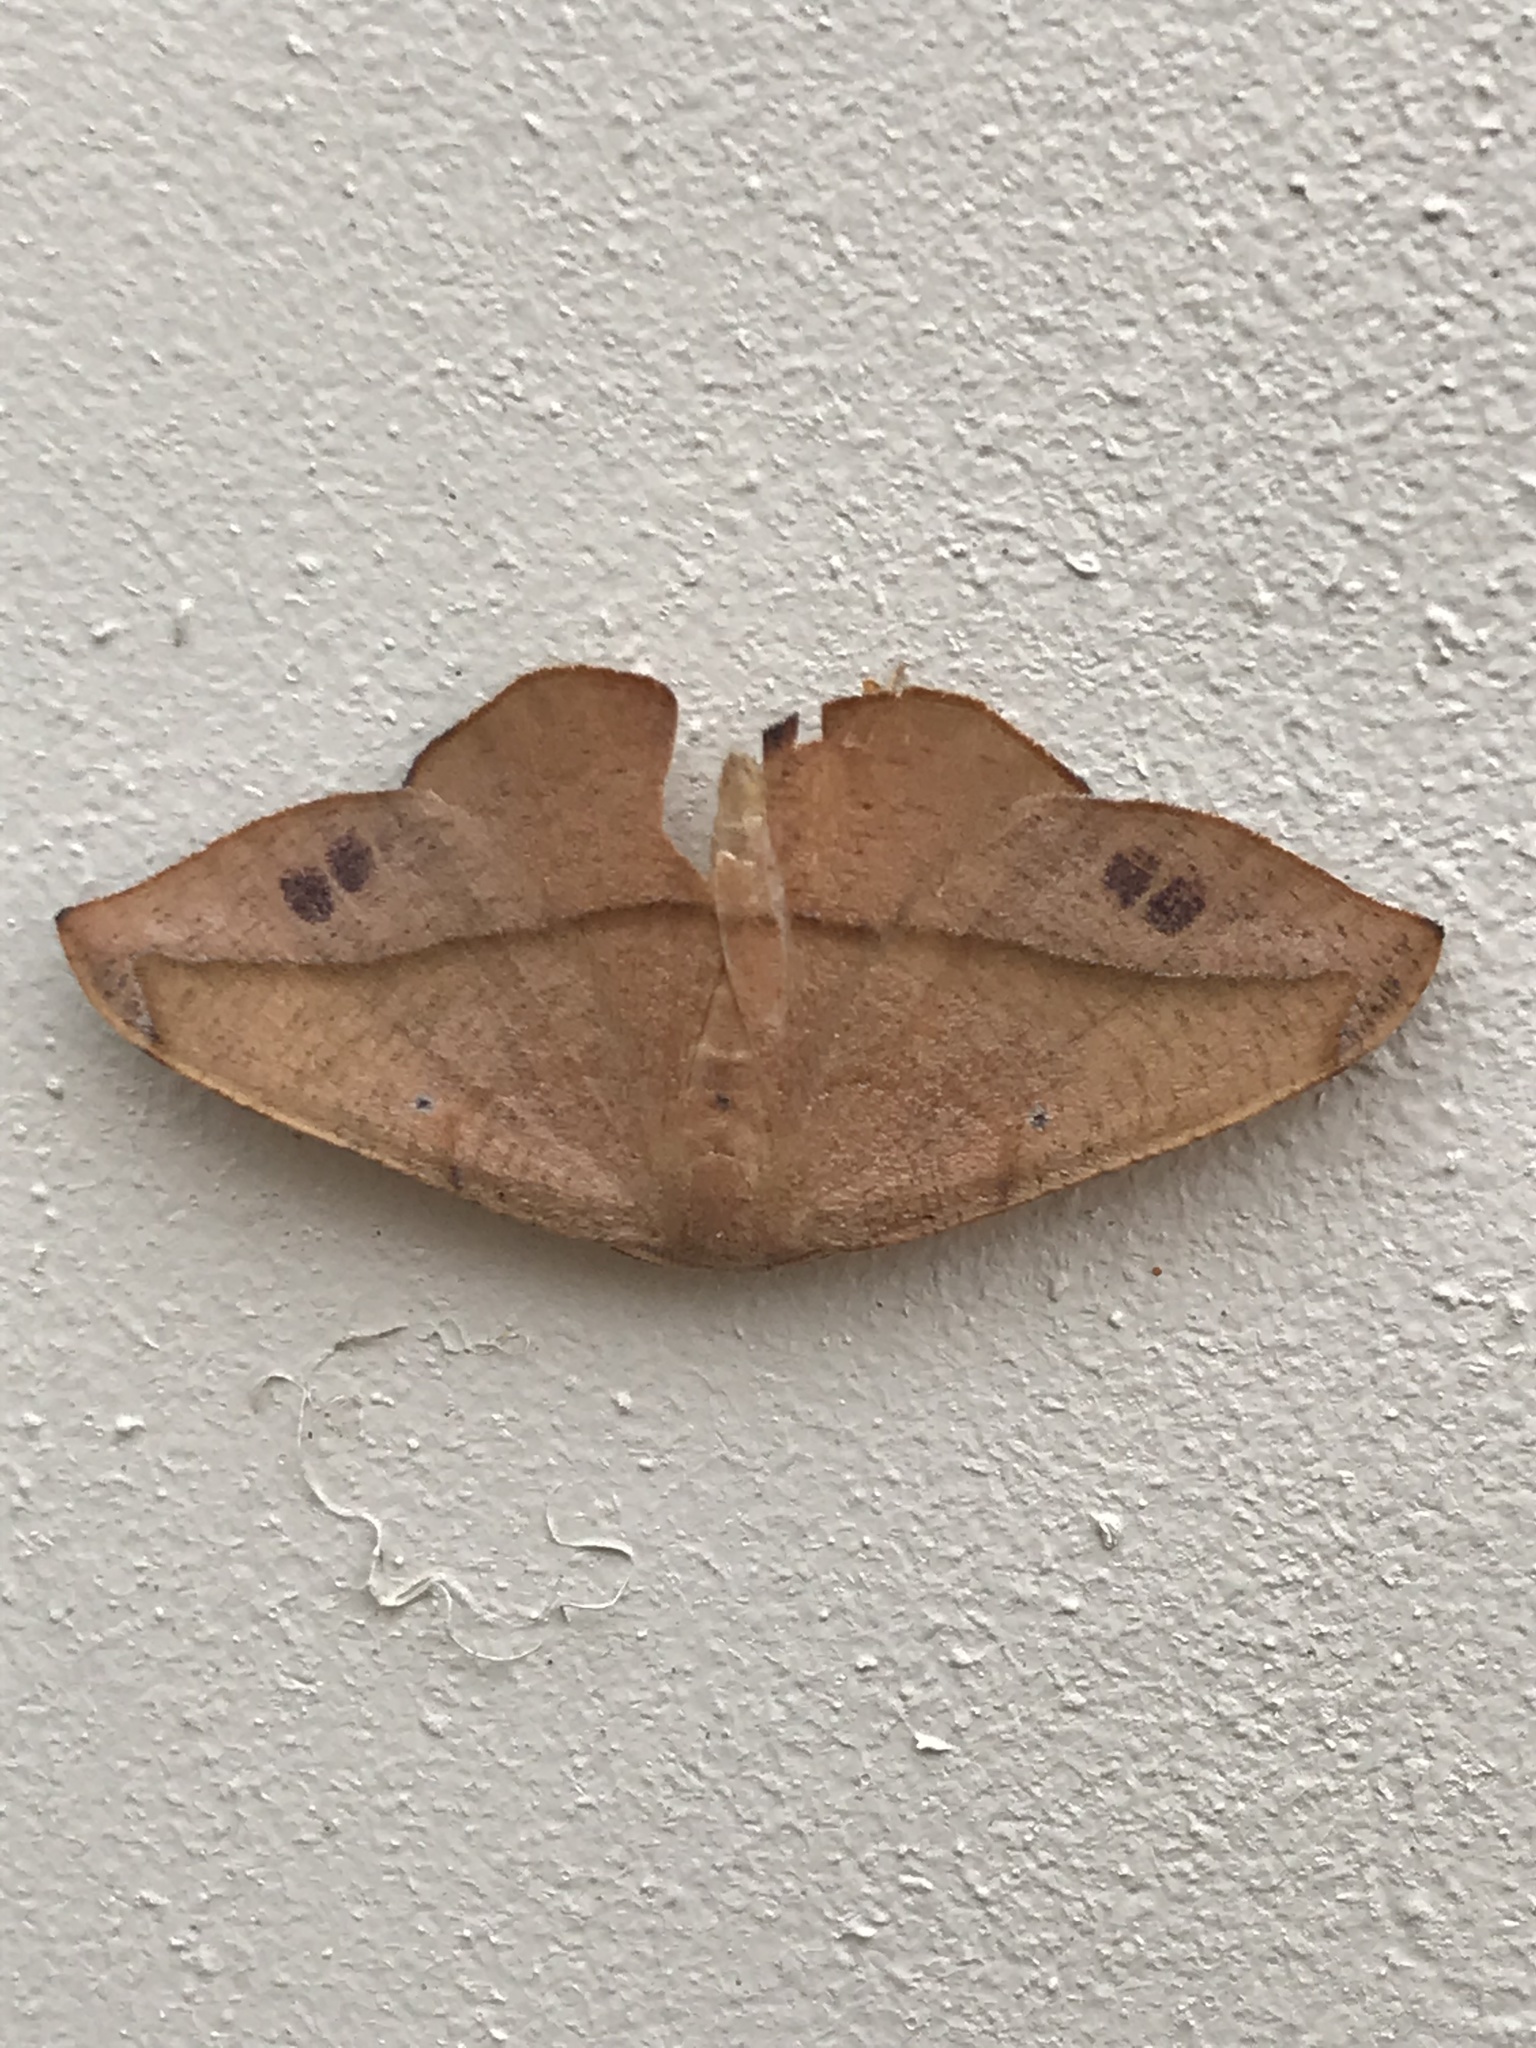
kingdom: Animalia
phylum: Arthropoda
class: Insecta
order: Lepidoptera
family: Geometridae
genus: Patalene
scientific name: Patalene olyzonaria
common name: Juniper geometer moth
